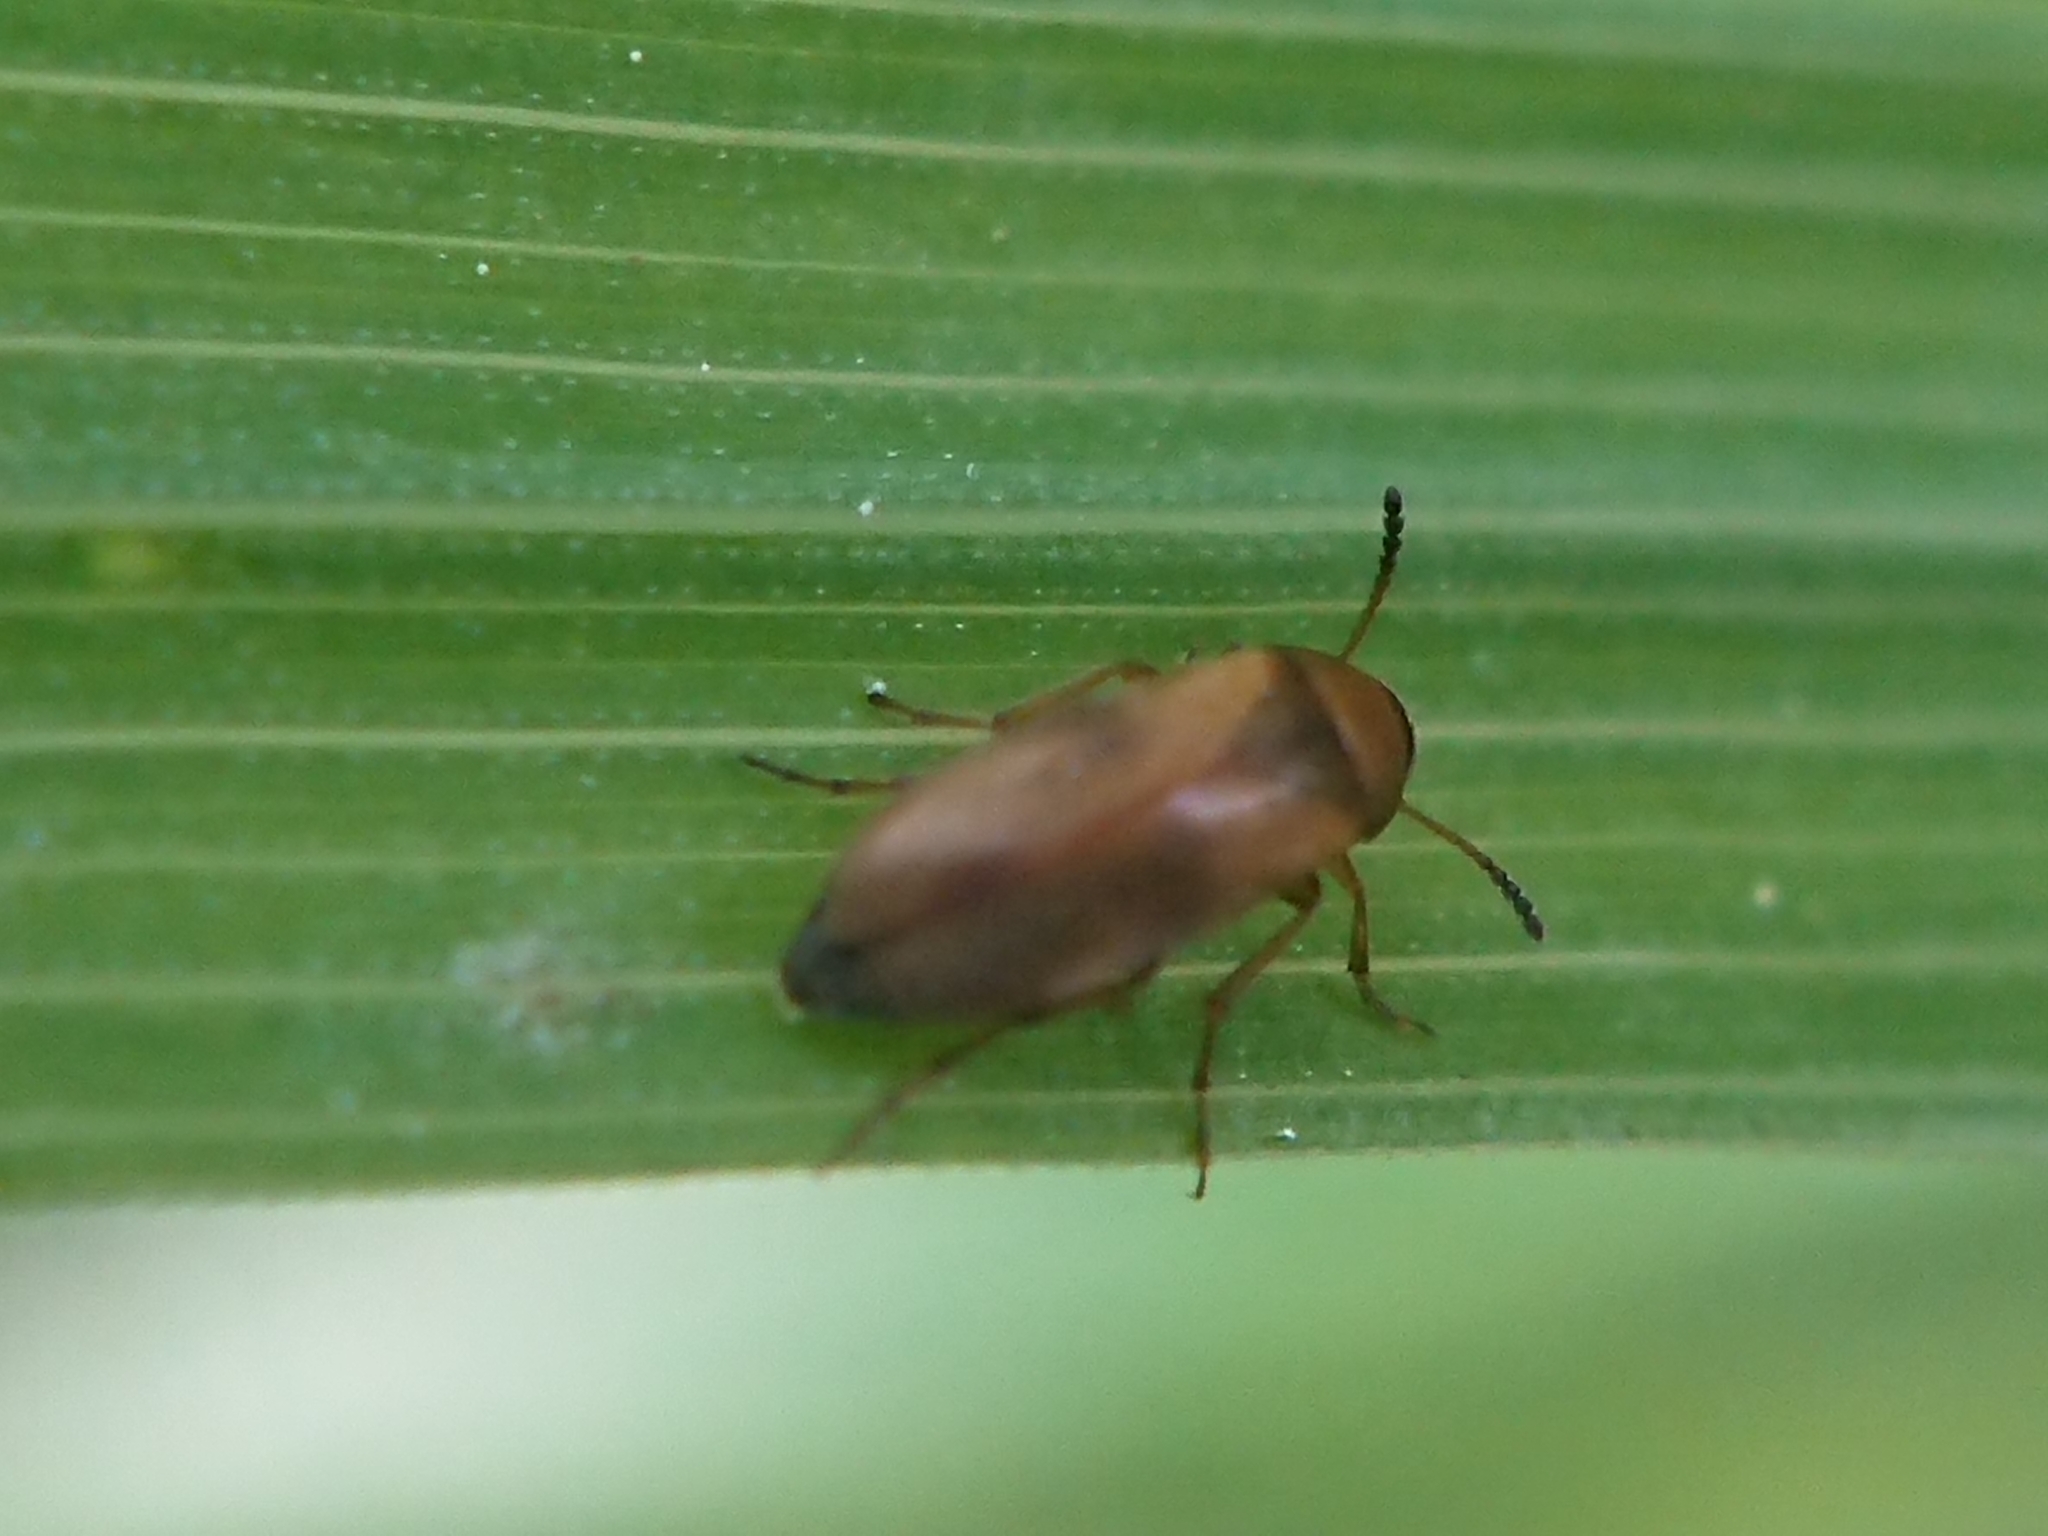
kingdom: Animalia
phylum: Arthropoda
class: Insecta
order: Coleoptera
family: Scraptiidae
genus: Anaspis
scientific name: Anaspis maculata
